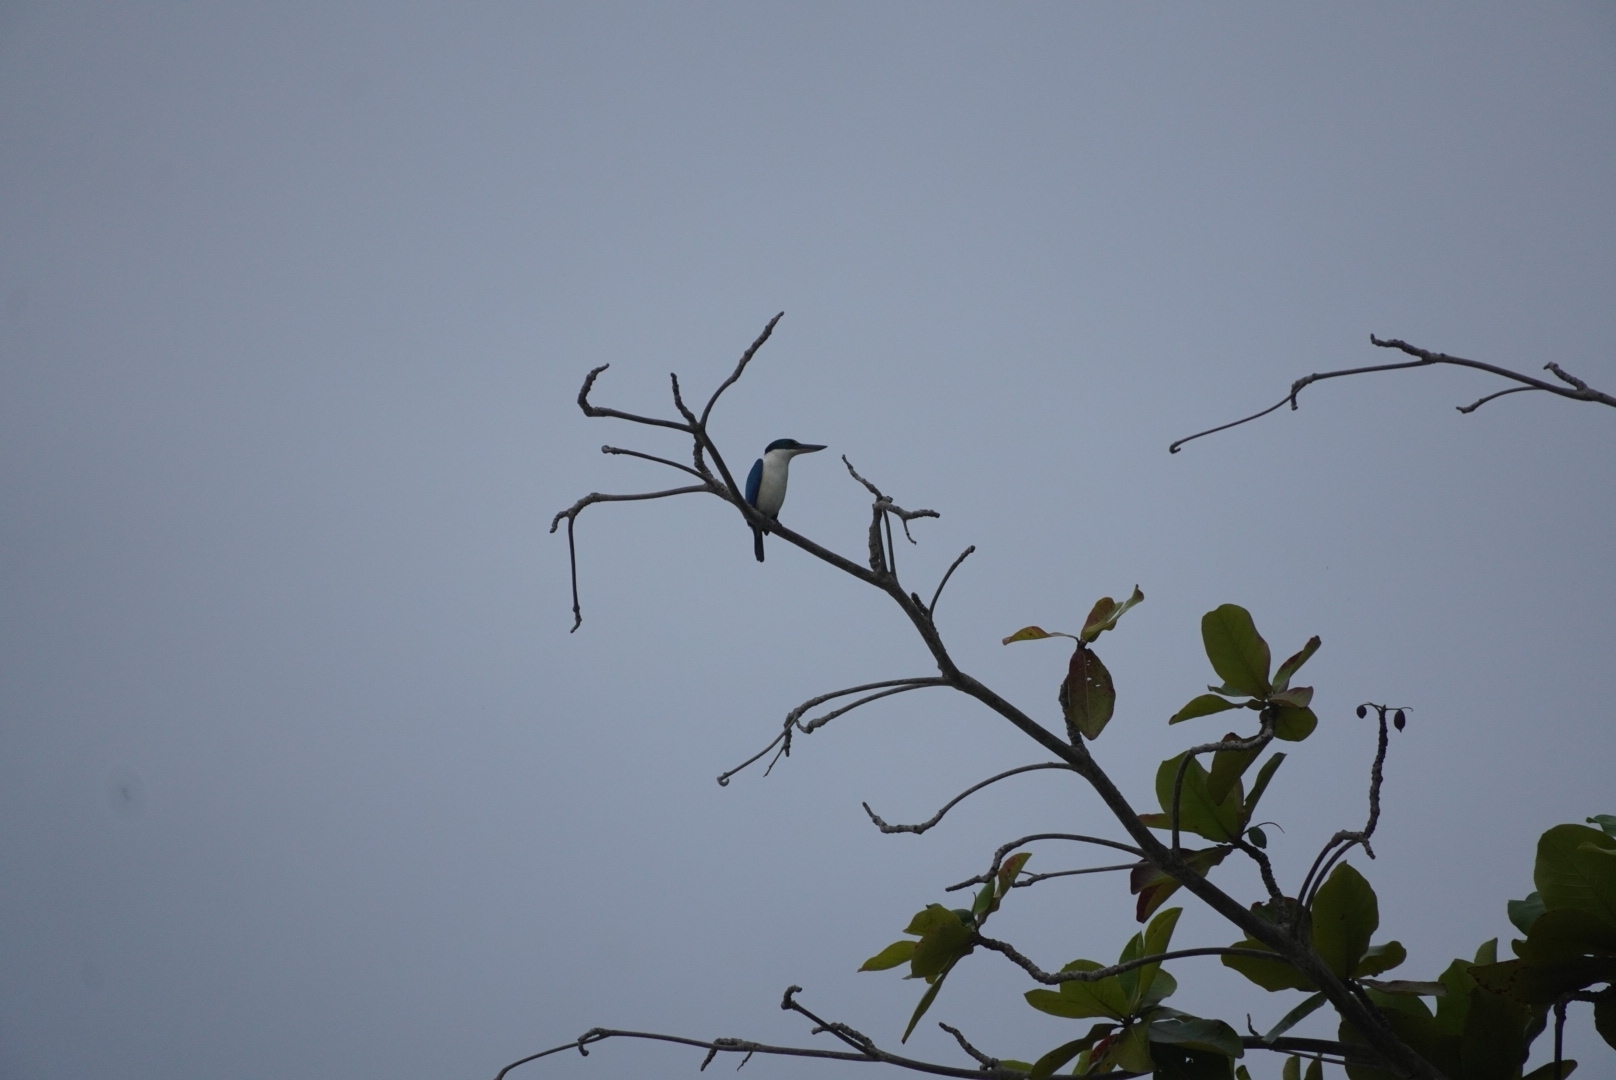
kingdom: Animalia
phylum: Chordata
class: Aves
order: Coraciiformes
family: Alcedinidae
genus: Todiramphus
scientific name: Todiramphus chloris
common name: Collared kingfisher
